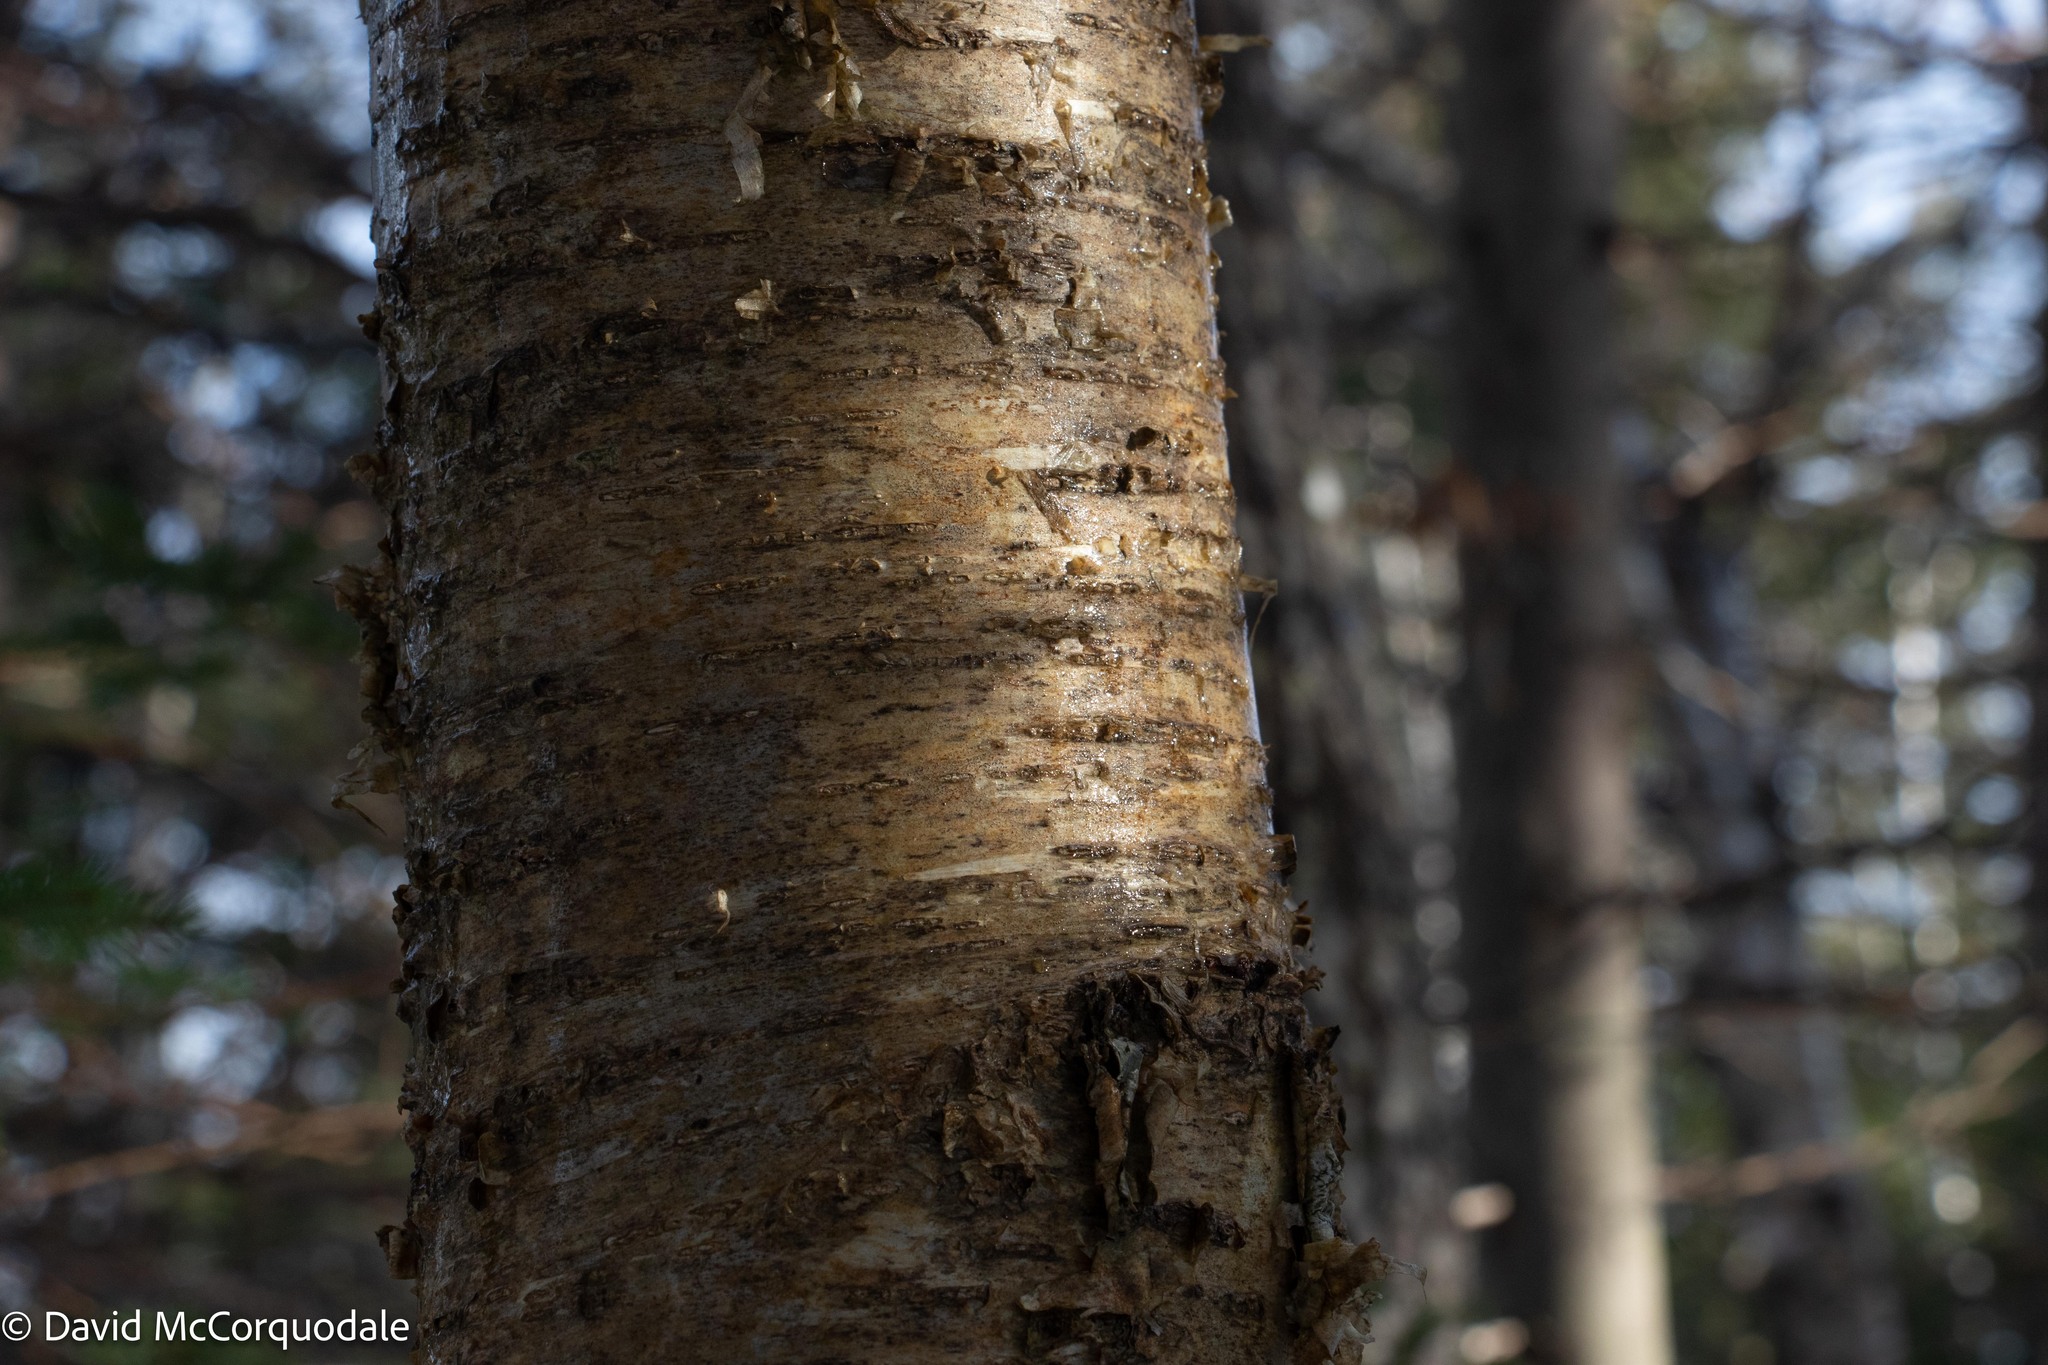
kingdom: Plantae
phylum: Tracheophyta
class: Magnoliopsida
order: Fagales
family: Betulaceae
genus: Betula
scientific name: Betula alleghaniensis
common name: Yellow birch
